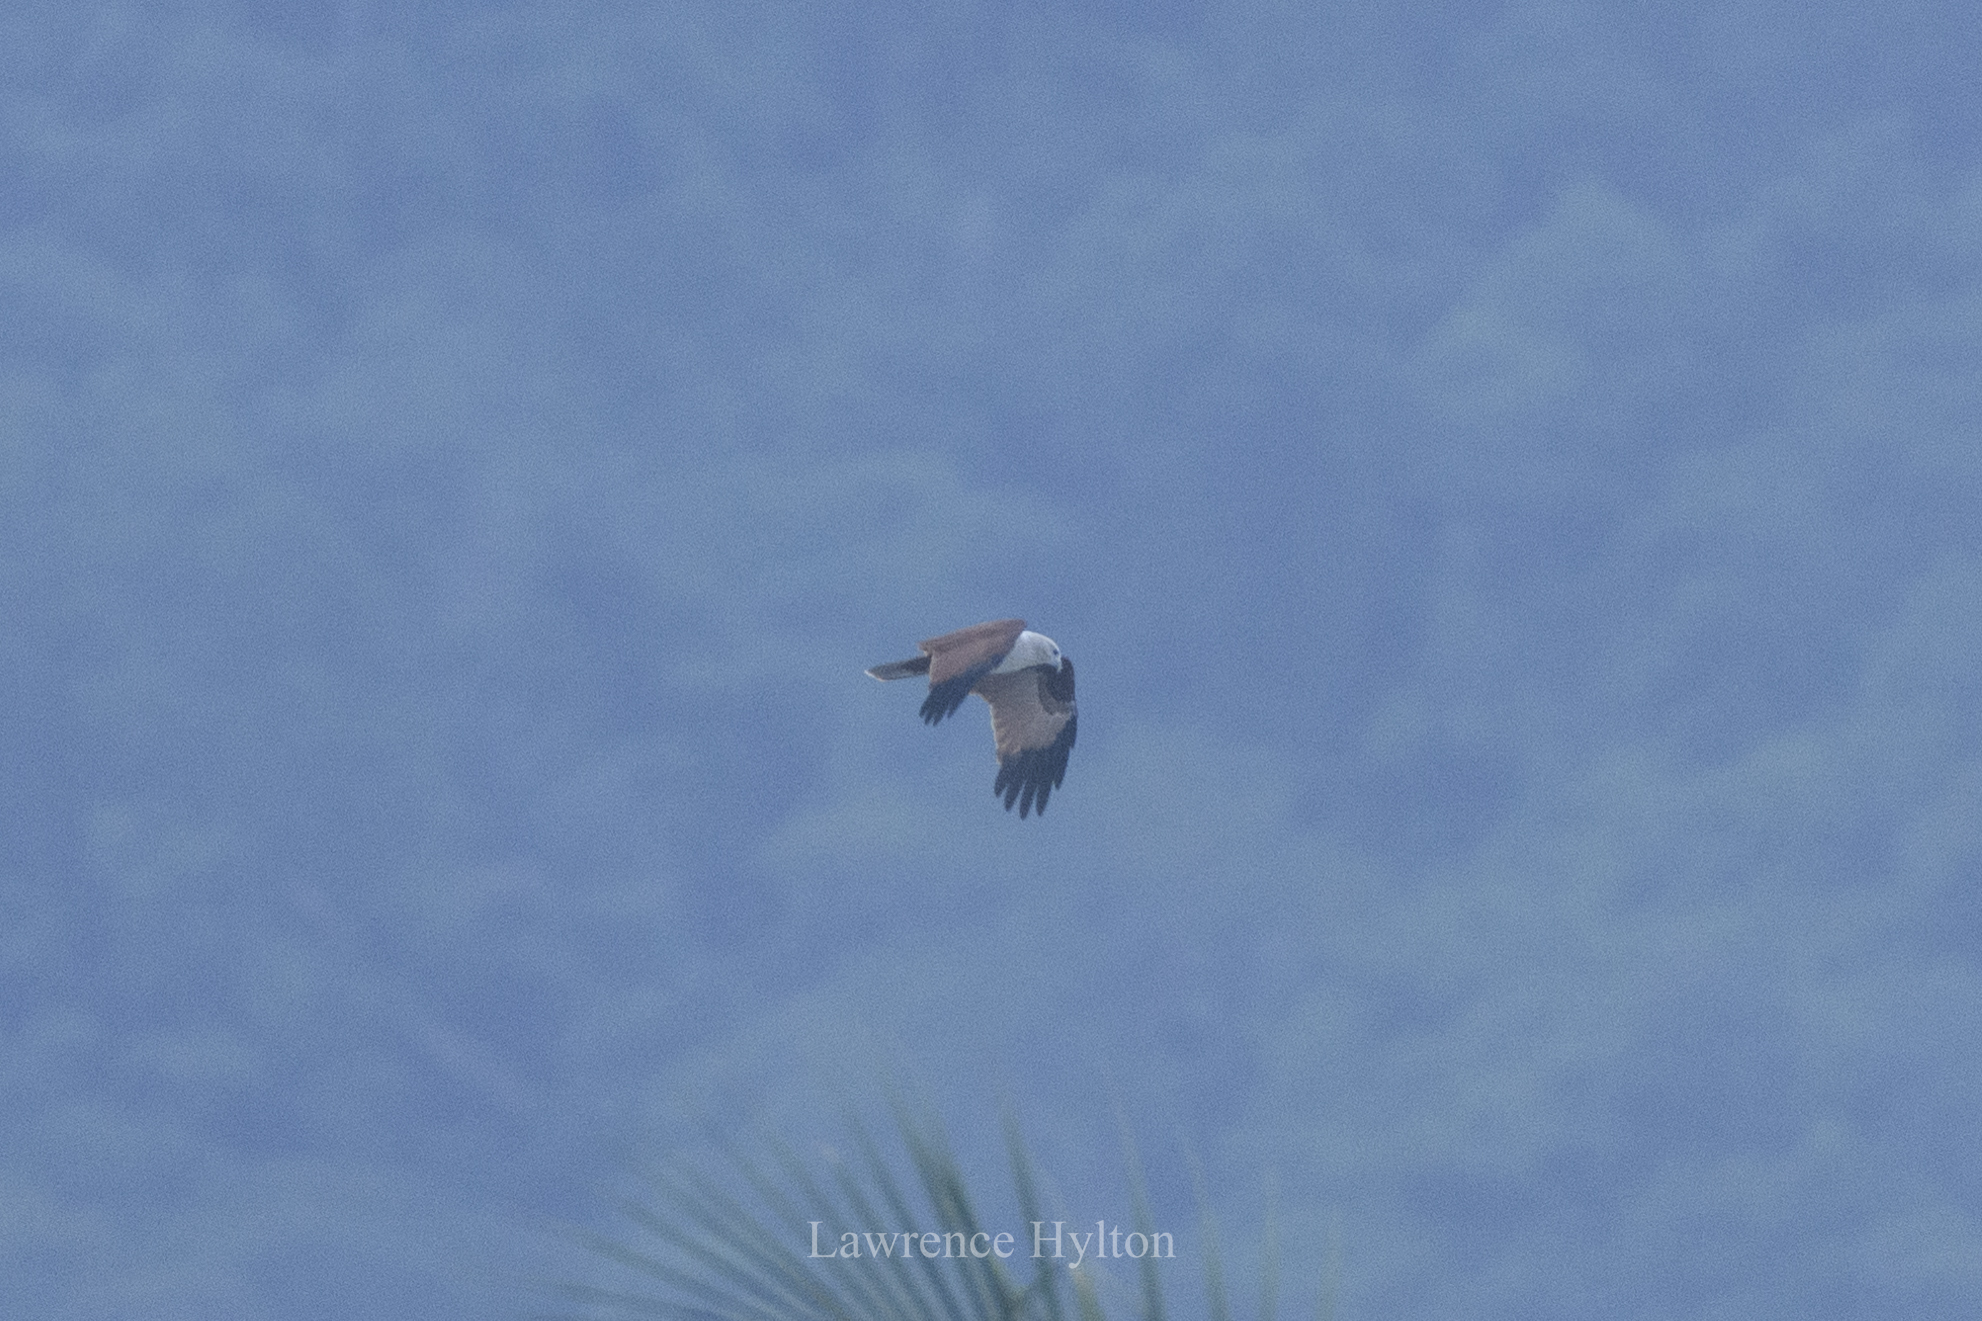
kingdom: Animalia
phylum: Chordata
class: Aves
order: Accipitriformes
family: Accipitridae
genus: Haliastur
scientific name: Haliastur indus
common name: Brahminy kite
